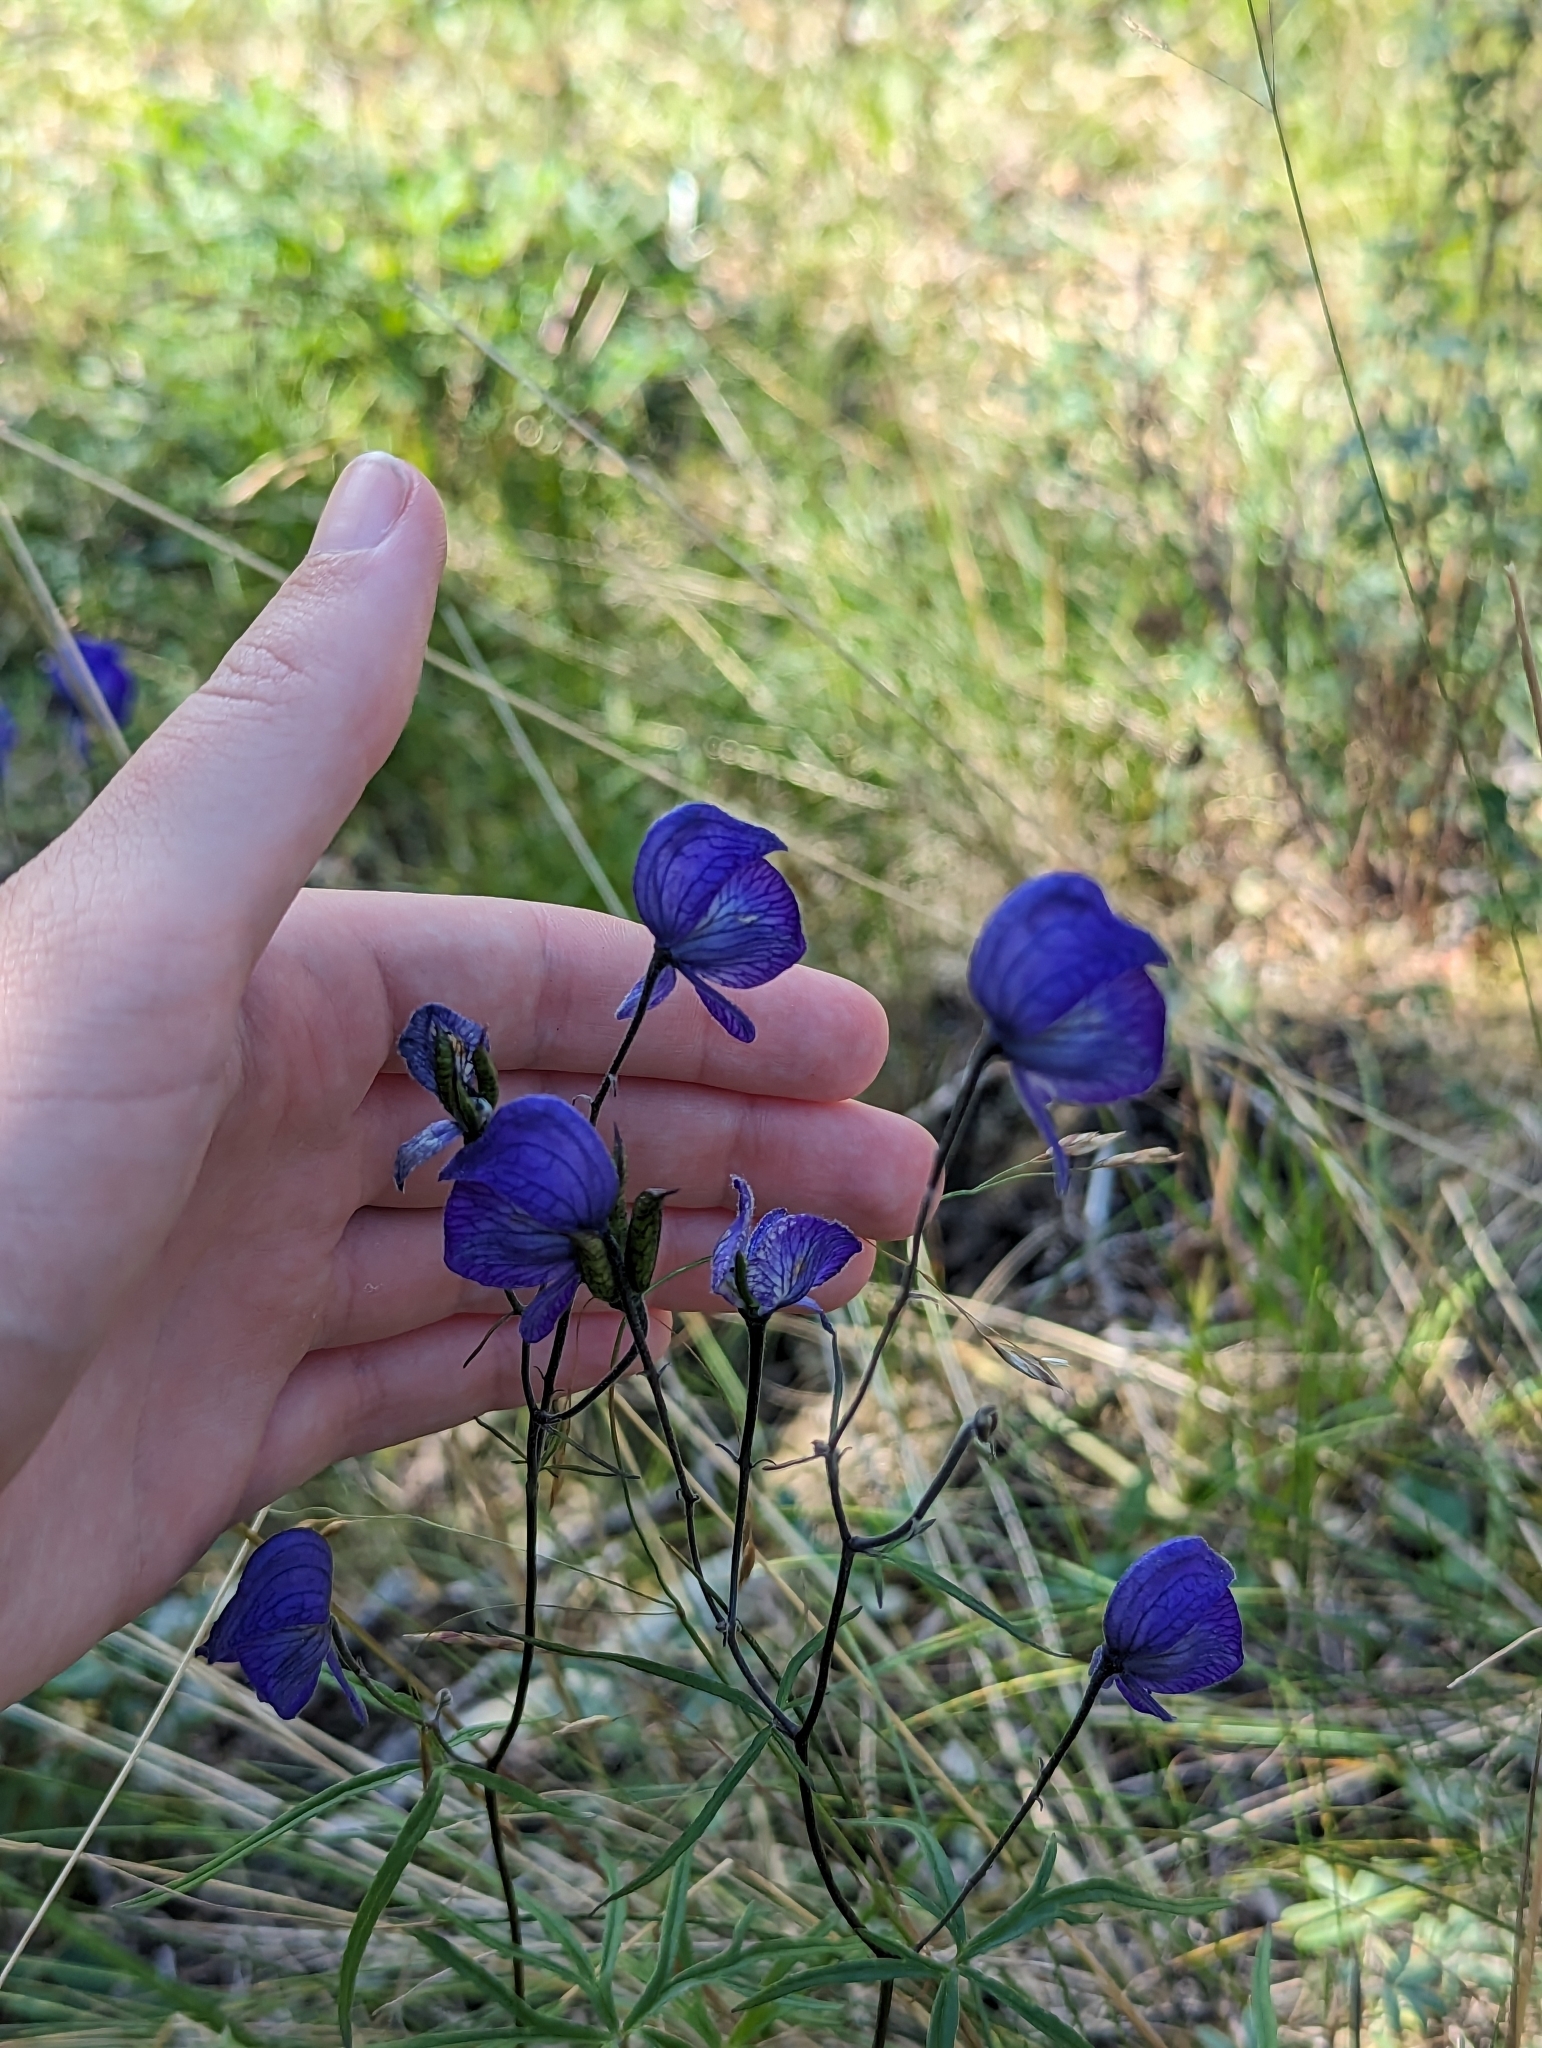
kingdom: Plantae
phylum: Tracheophyta
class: Magnoliopsida
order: Ranunculales
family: Ranunculaceae
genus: Aconitum
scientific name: Aconitum delphiniifolium
